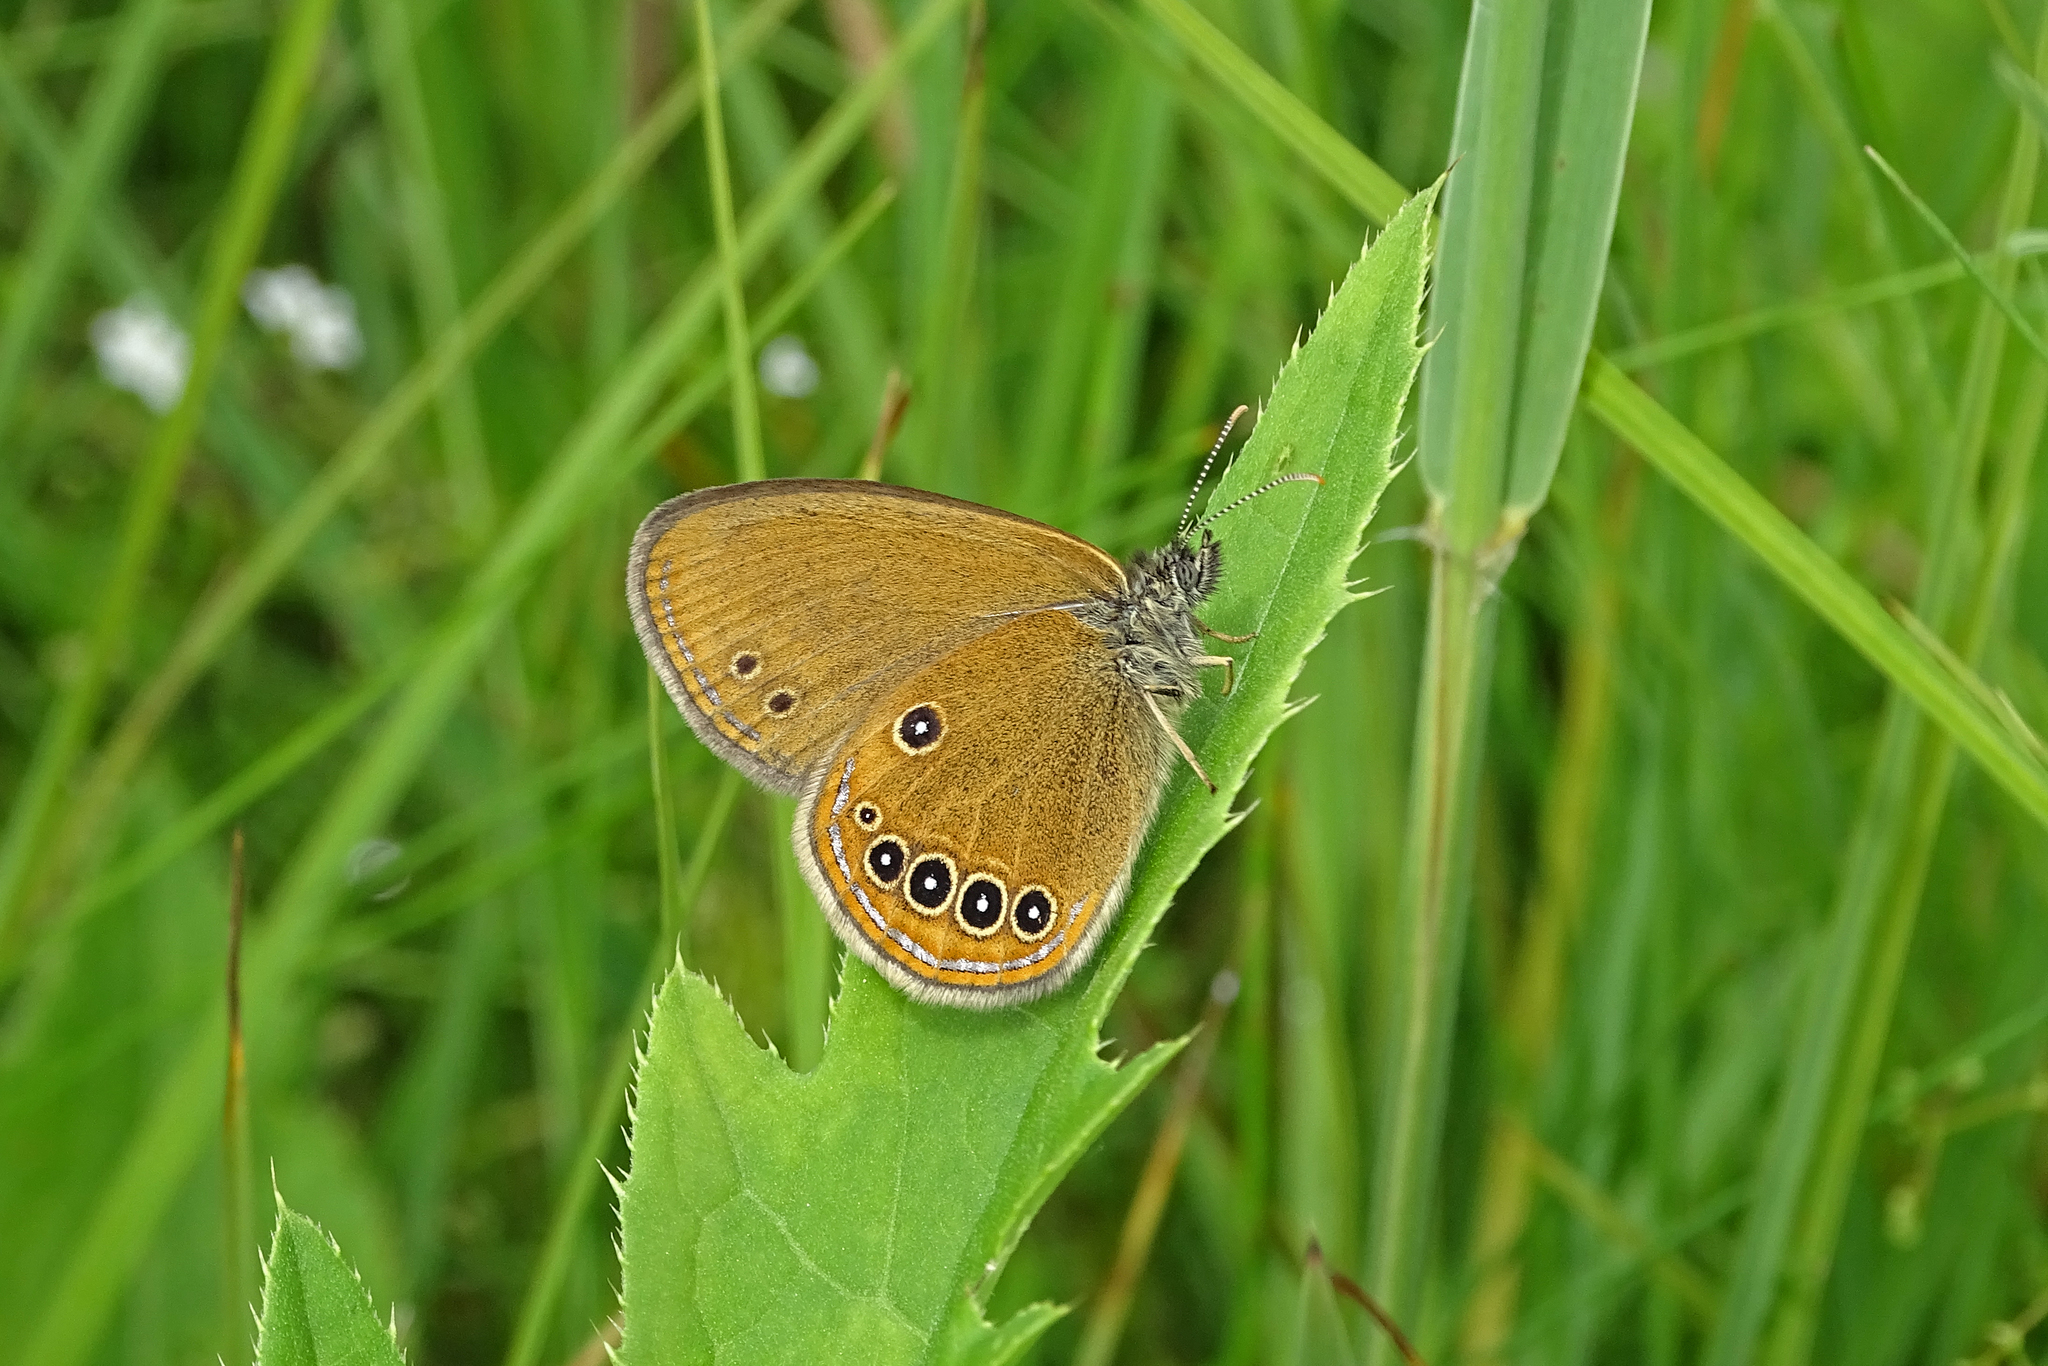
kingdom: Animalia
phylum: Arthropoda
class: Insecta
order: Lepidoptera
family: Nymphalidae
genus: Coenonympha
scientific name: Coenonympha oedippus
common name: False ringlet
